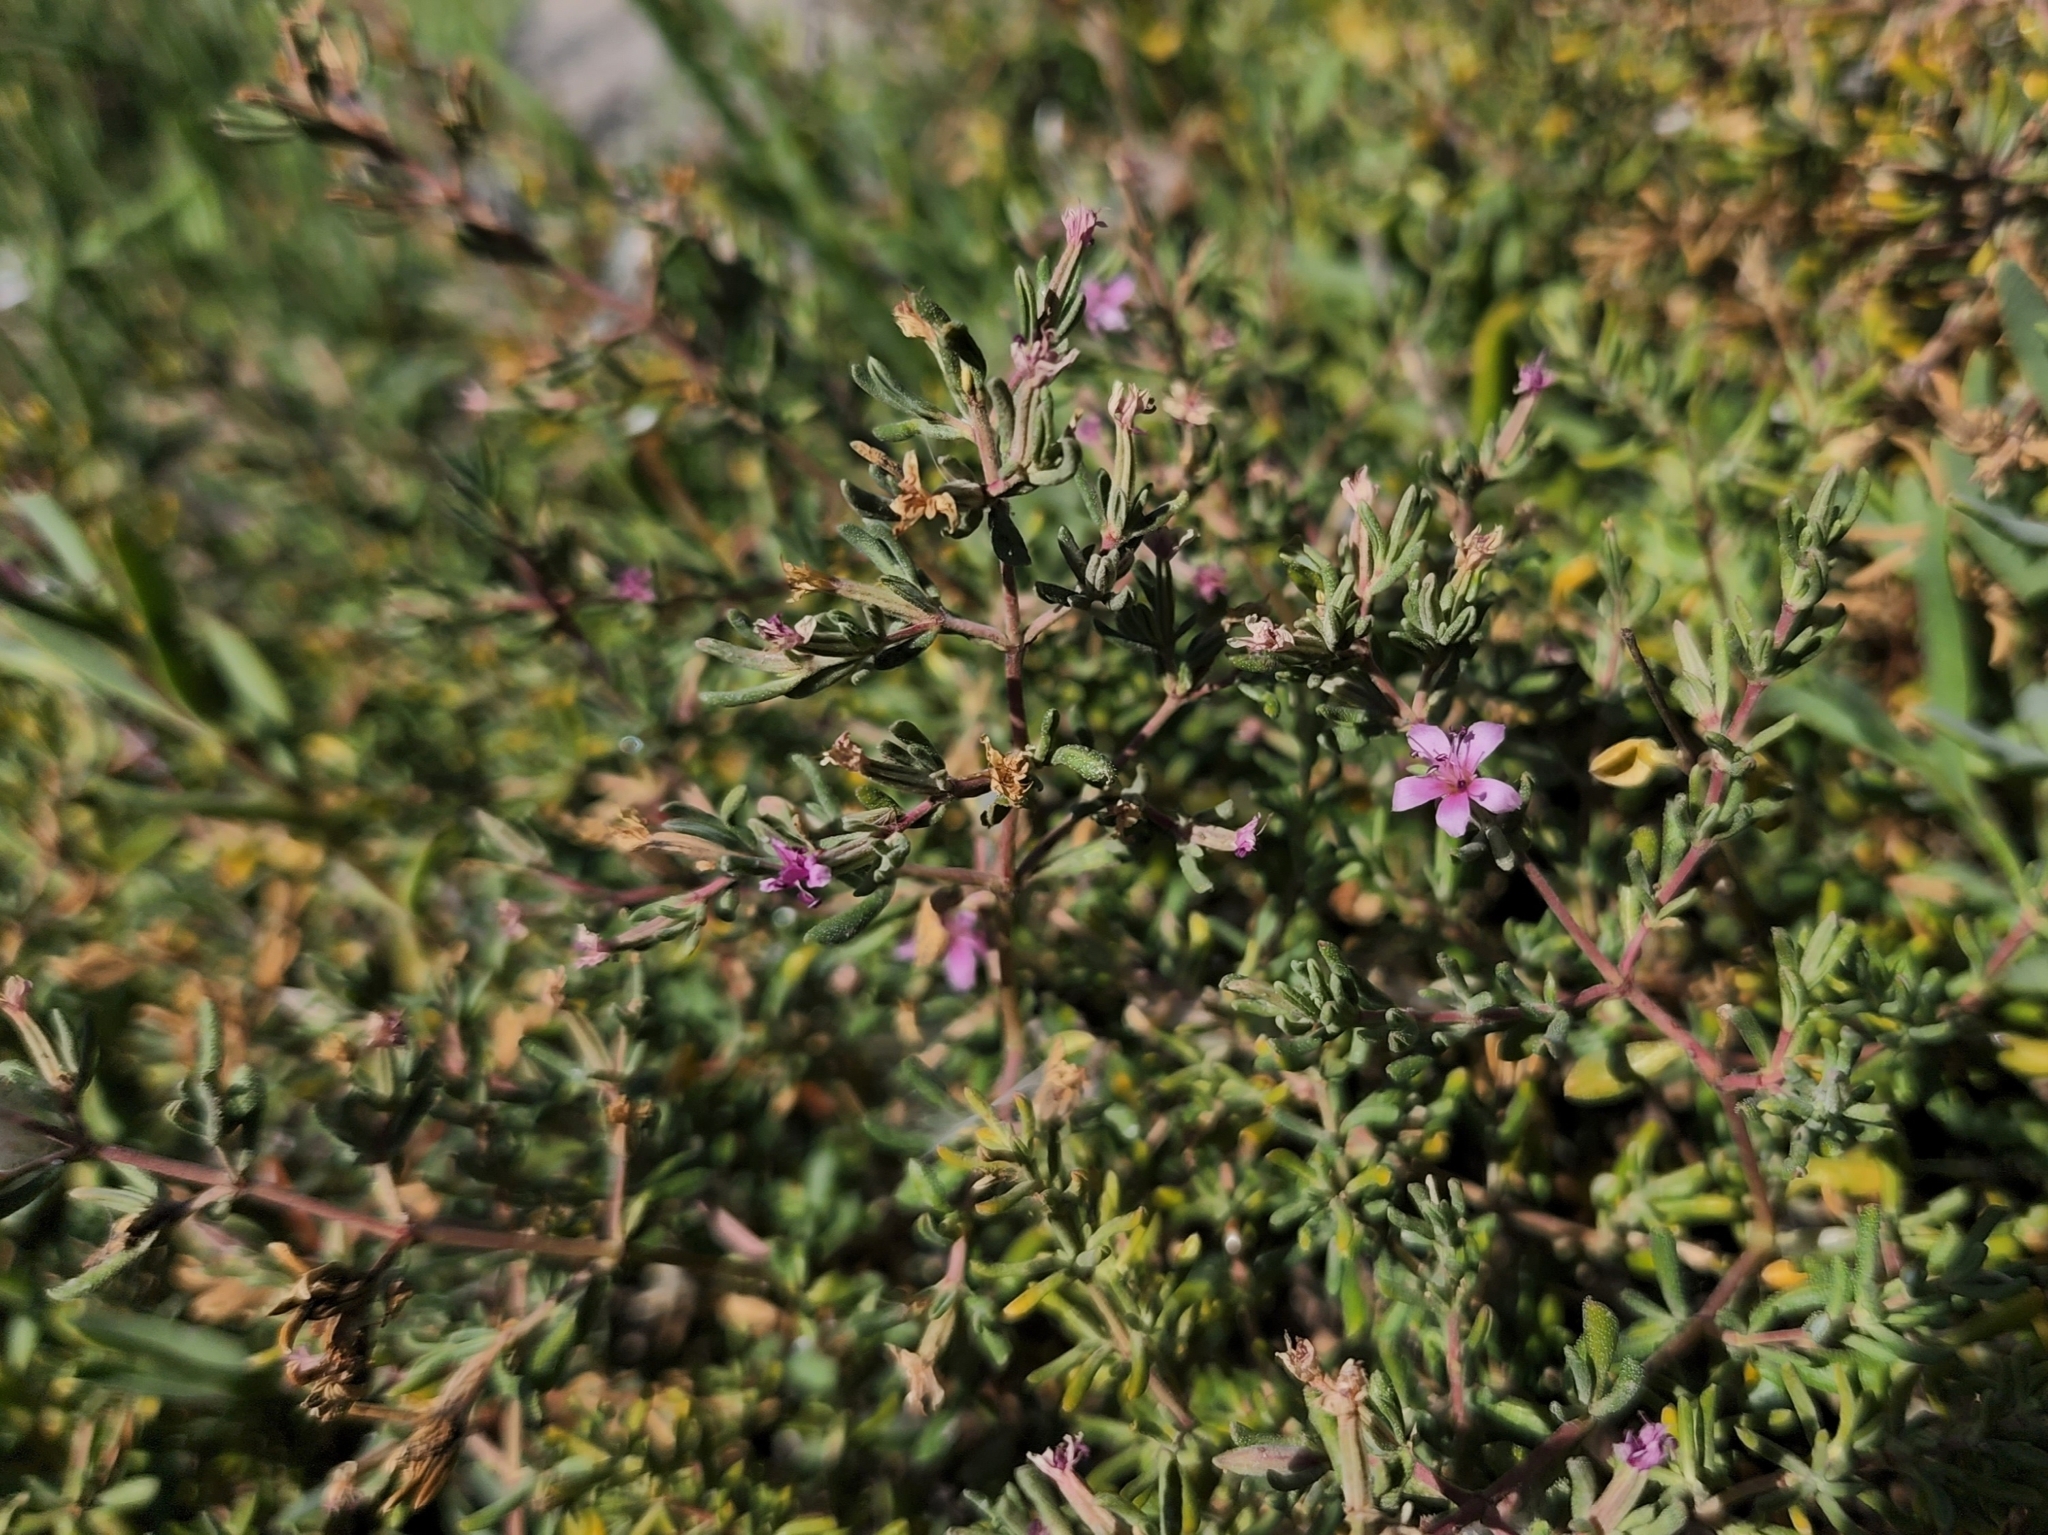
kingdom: Plantae
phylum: Tracheophyta
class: Magnoliopsida
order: Caryophyllales
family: Frankeniaceae
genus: Frankenia
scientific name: Frankenia salina
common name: Alkali seaheath
